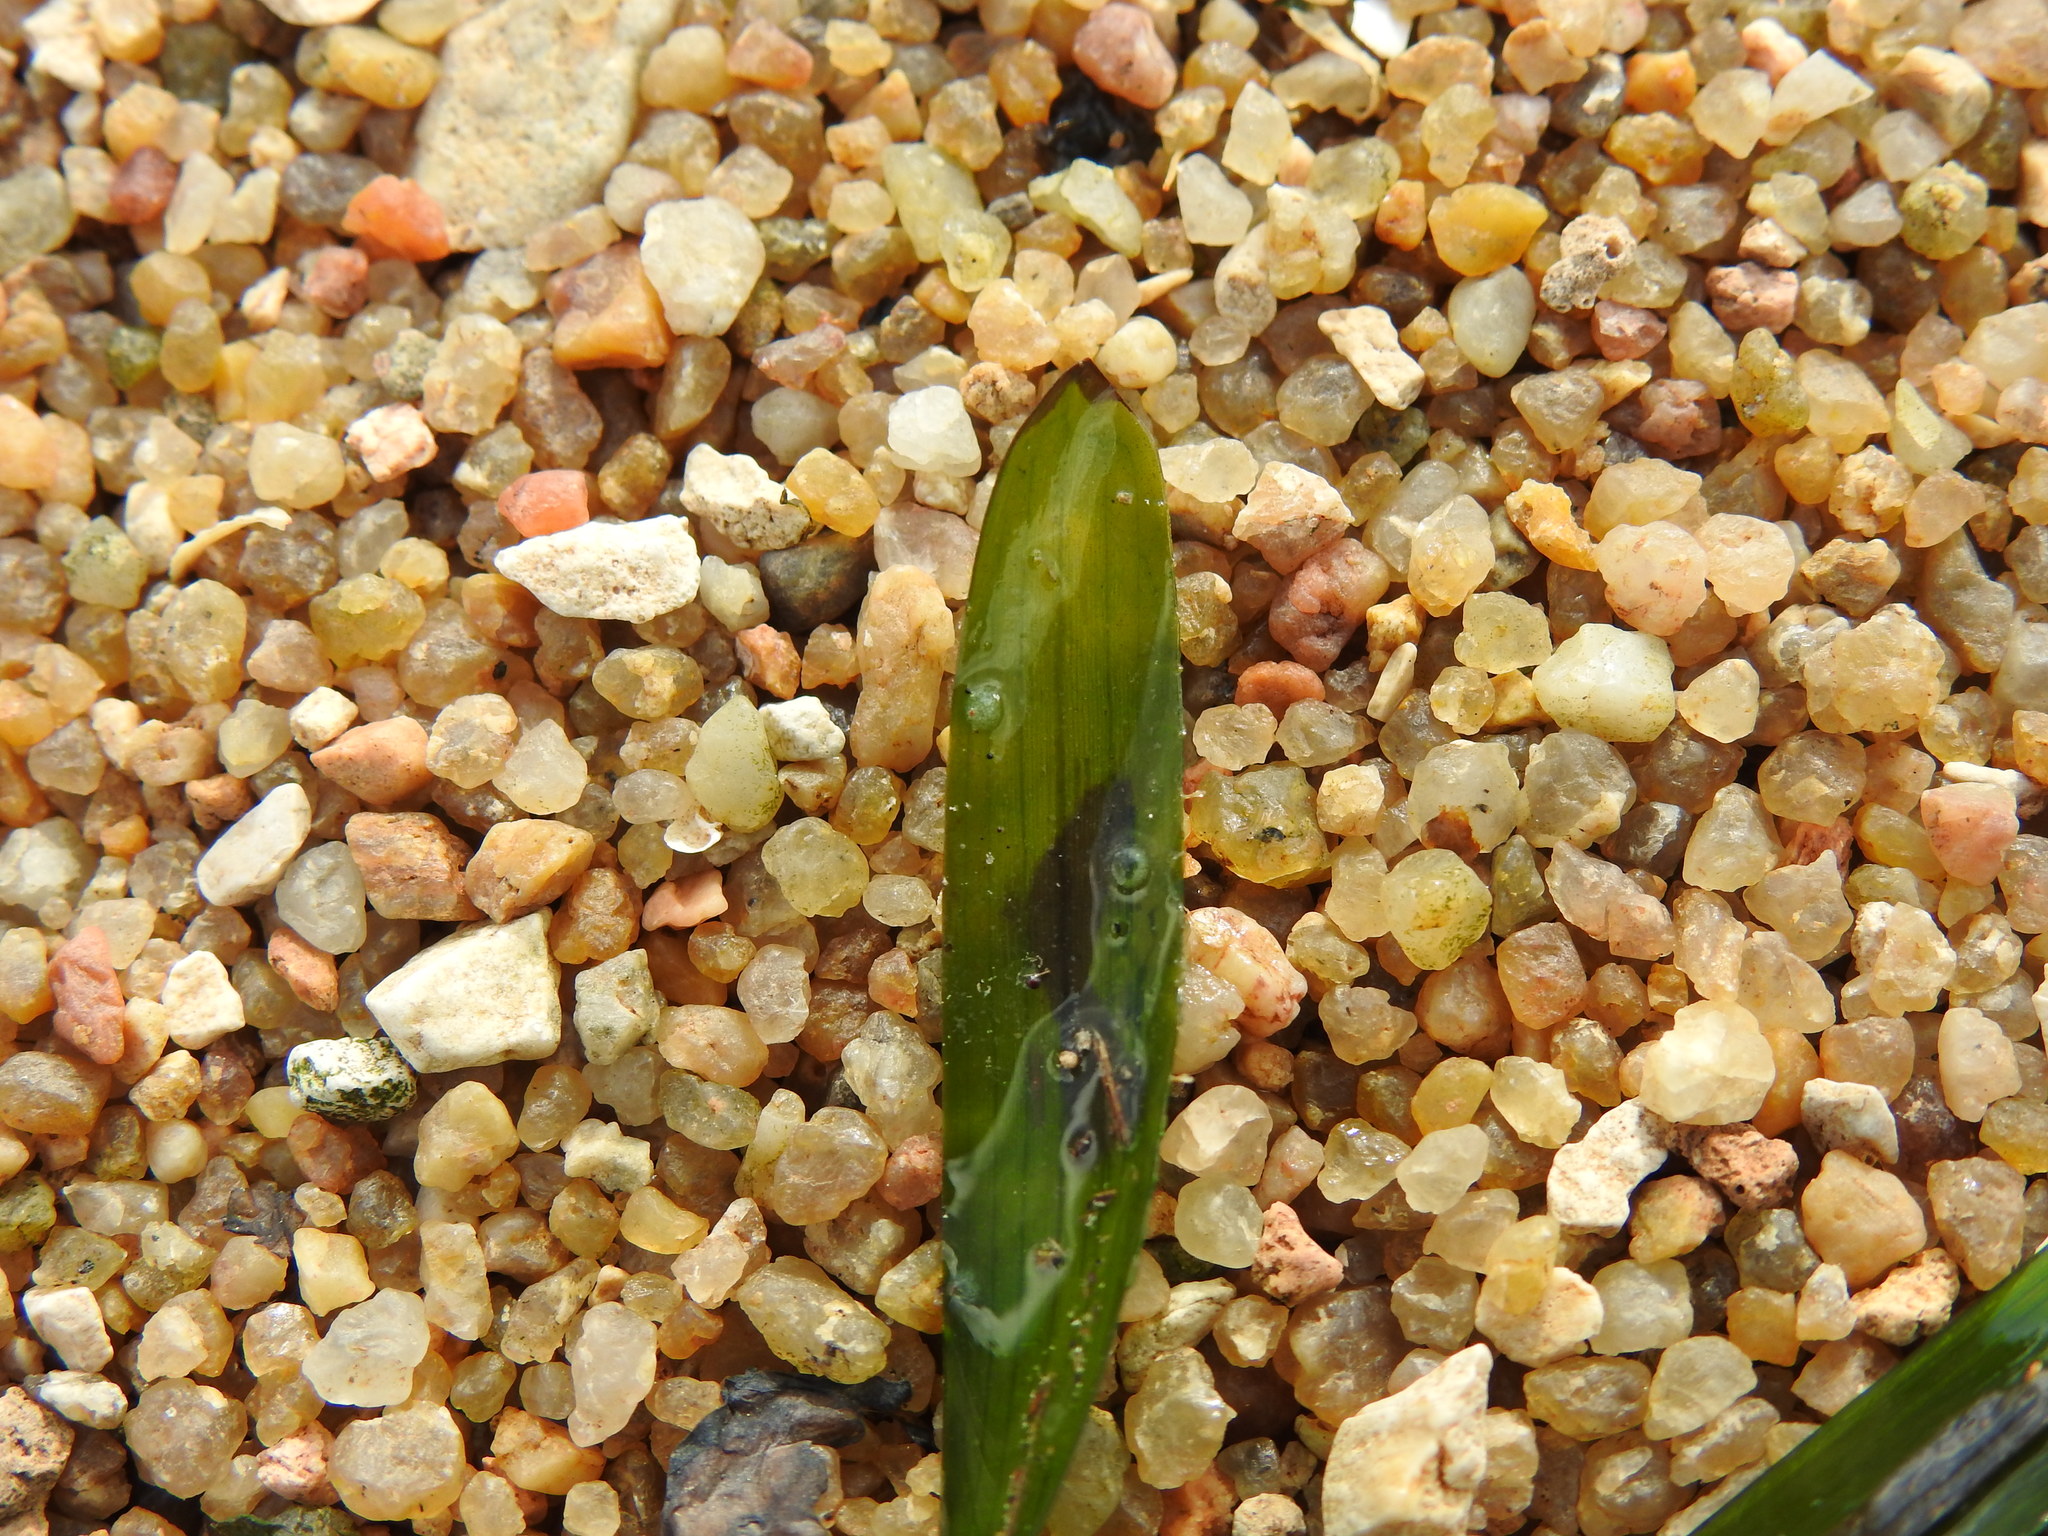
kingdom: Plantae
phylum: Tracheophyta
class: Liliopsida
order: Alismatales
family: Zosteraceae
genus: Zostera
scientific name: Zostera marina
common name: Eelgrass
